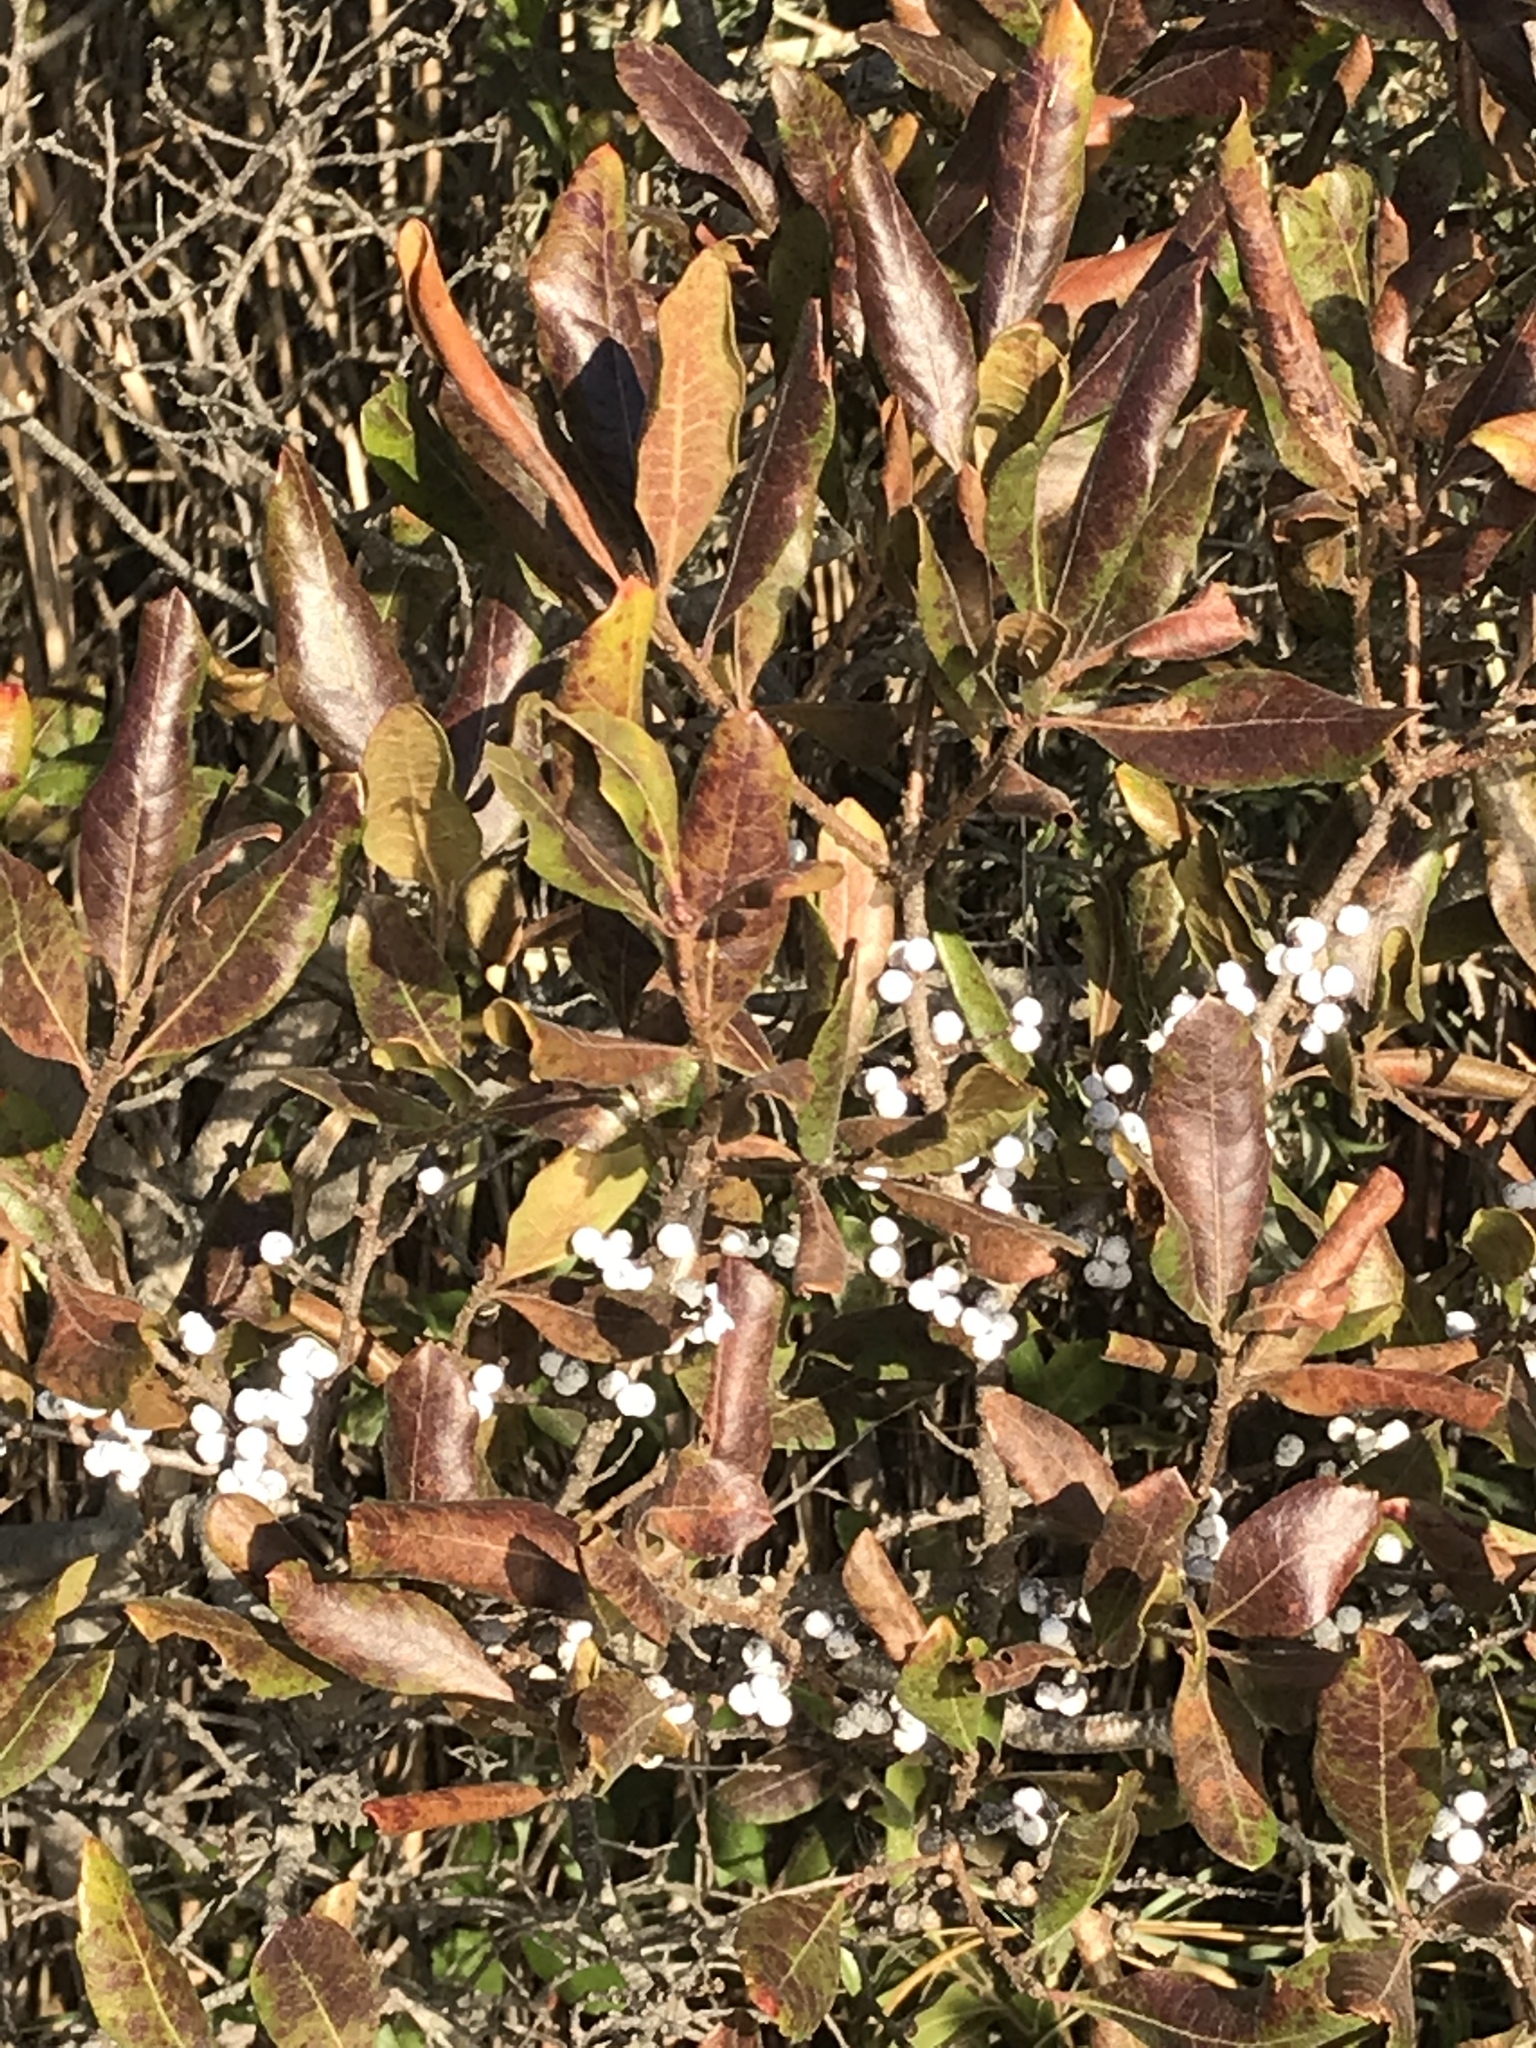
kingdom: Plantae
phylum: Tracheophyta
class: Magnoliopsida
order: Fagales
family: Myricaceae
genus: Morella
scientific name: Morella pensylvanica
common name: Northern bayberry
